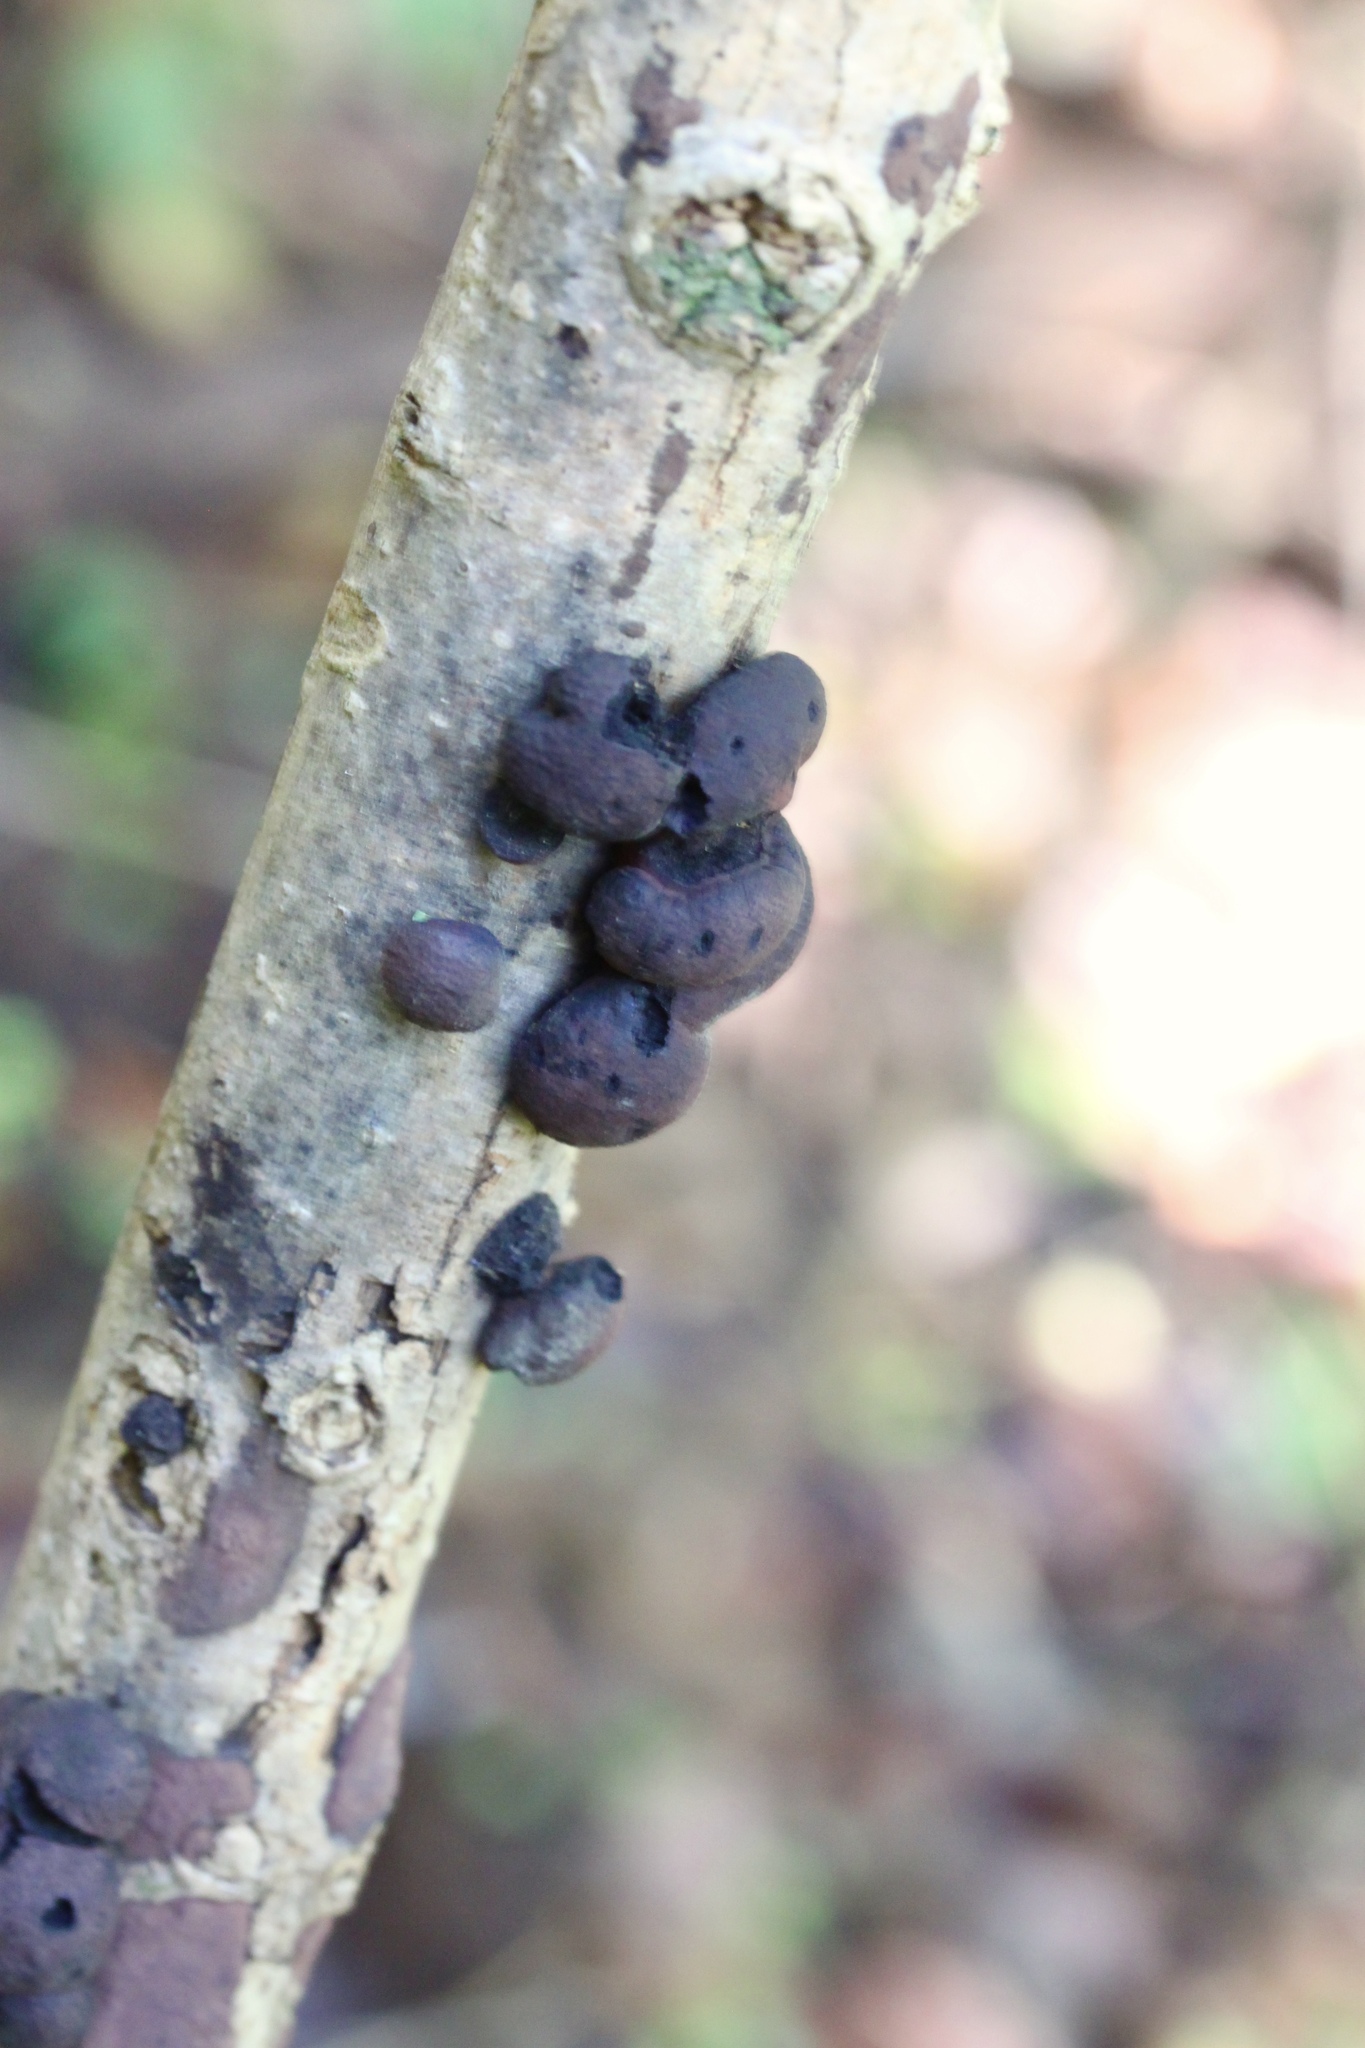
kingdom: Fungi
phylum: Ascomycota
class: Sordariomycetes
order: Xylariales
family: Hypoxylaceae
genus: Daldinia
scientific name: Daldinia childiae
